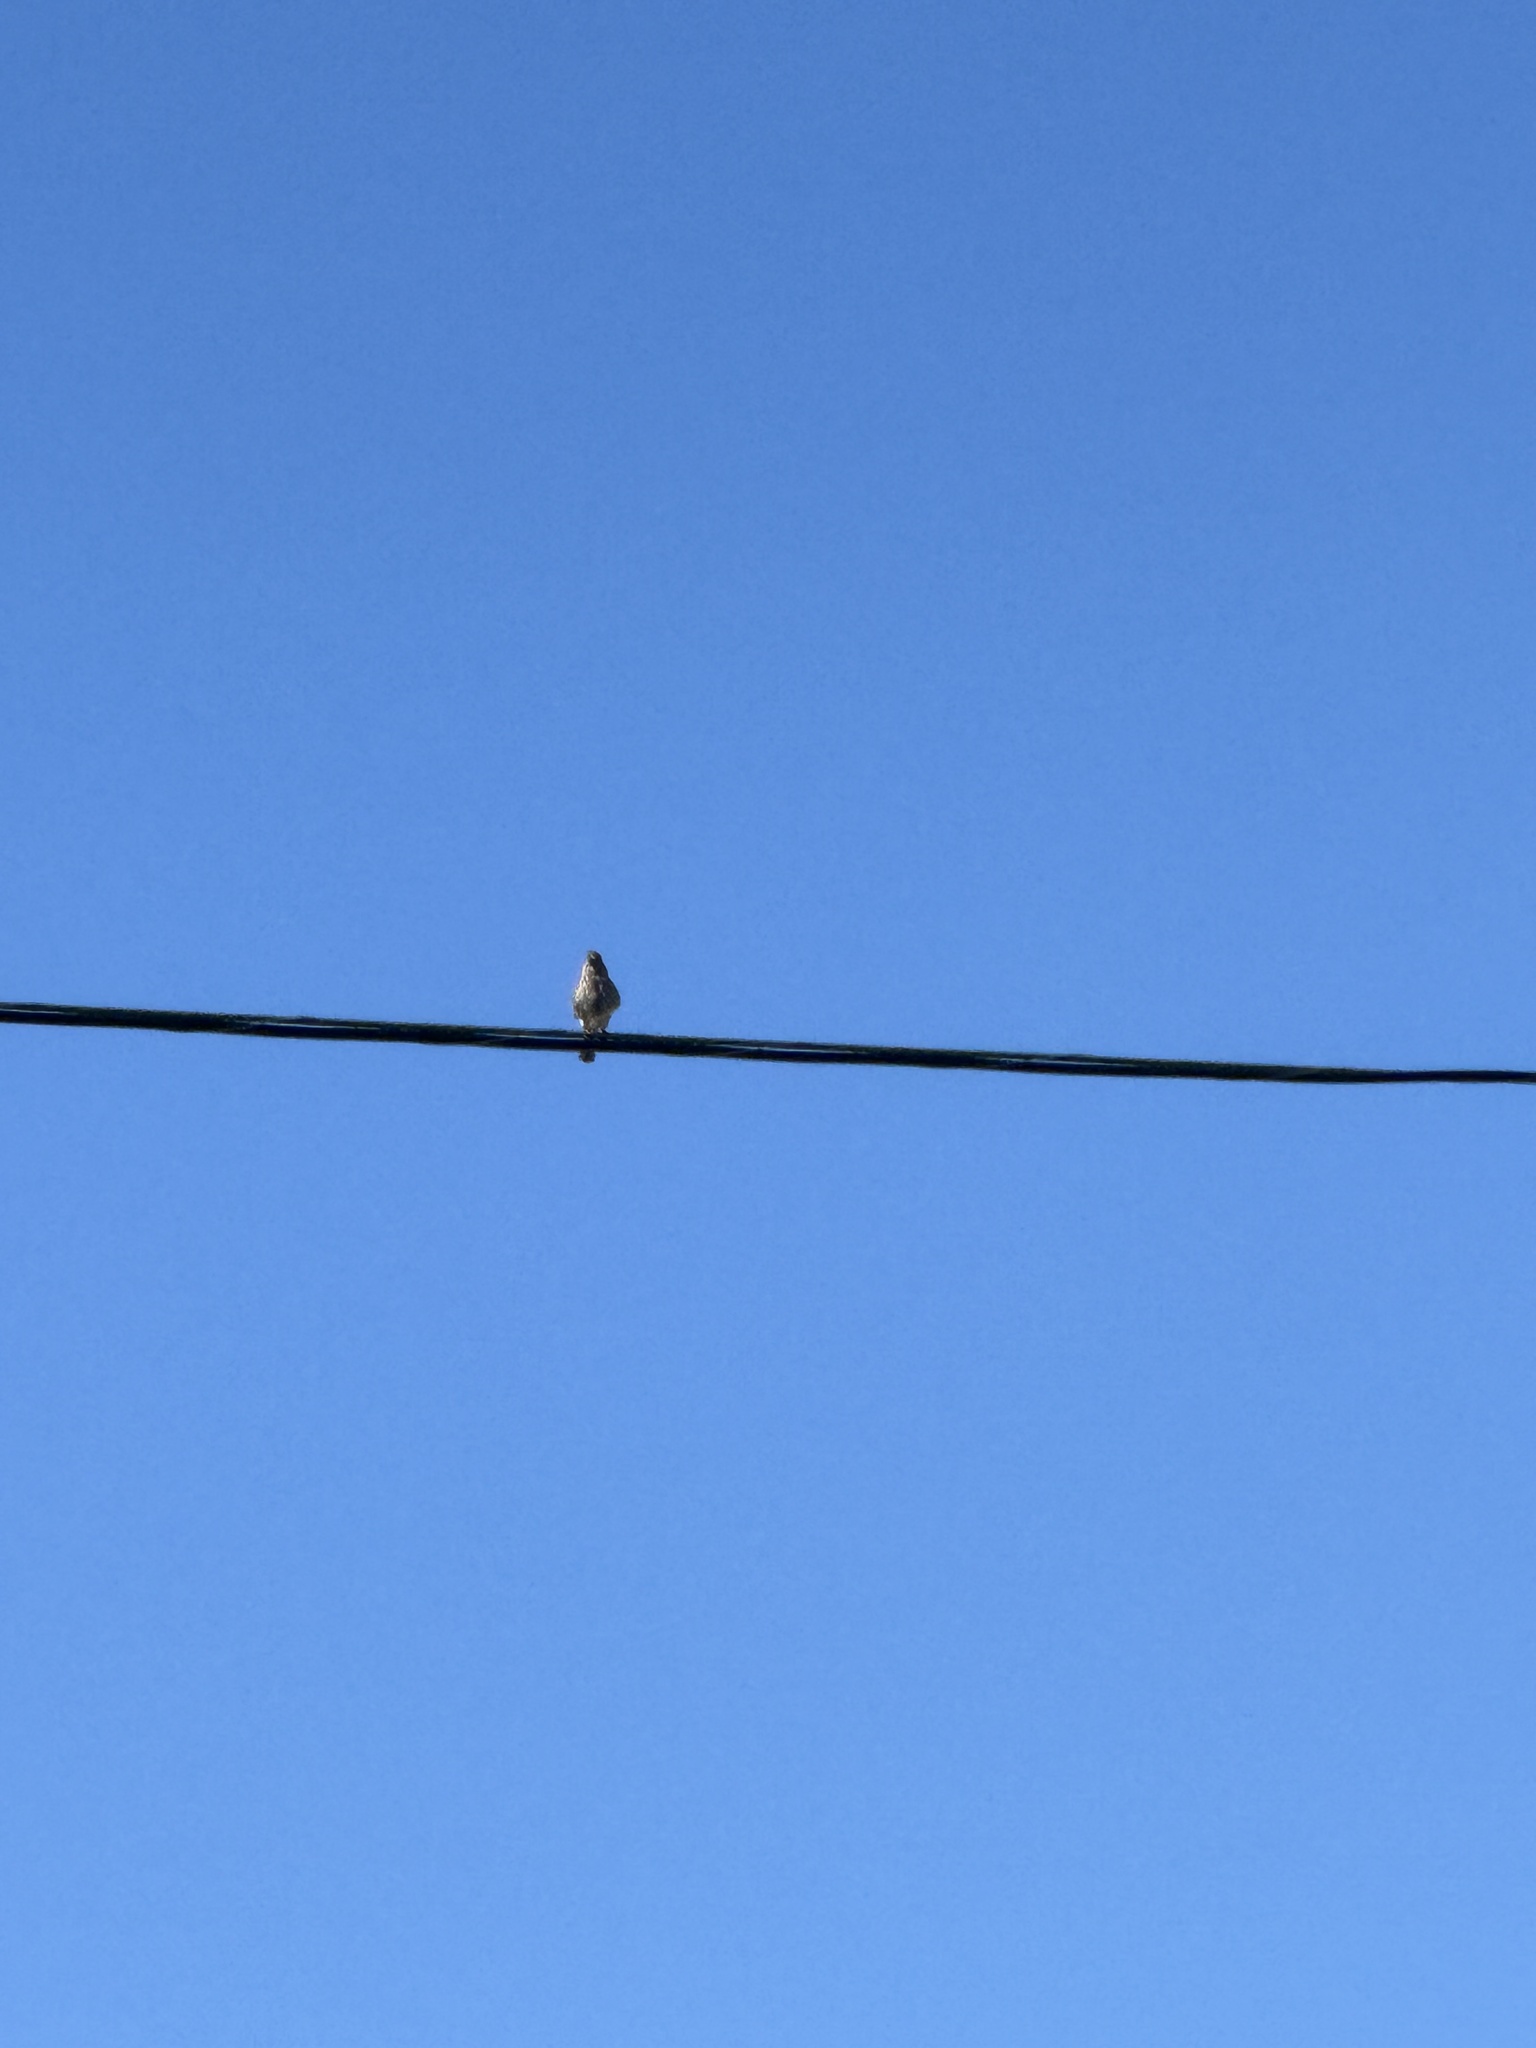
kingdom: Animalia
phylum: Chordata
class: Aves
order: Passeriformes
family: Fringillidae
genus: Haemorhous
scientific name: Haemorhous mexicanus
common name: House finch
